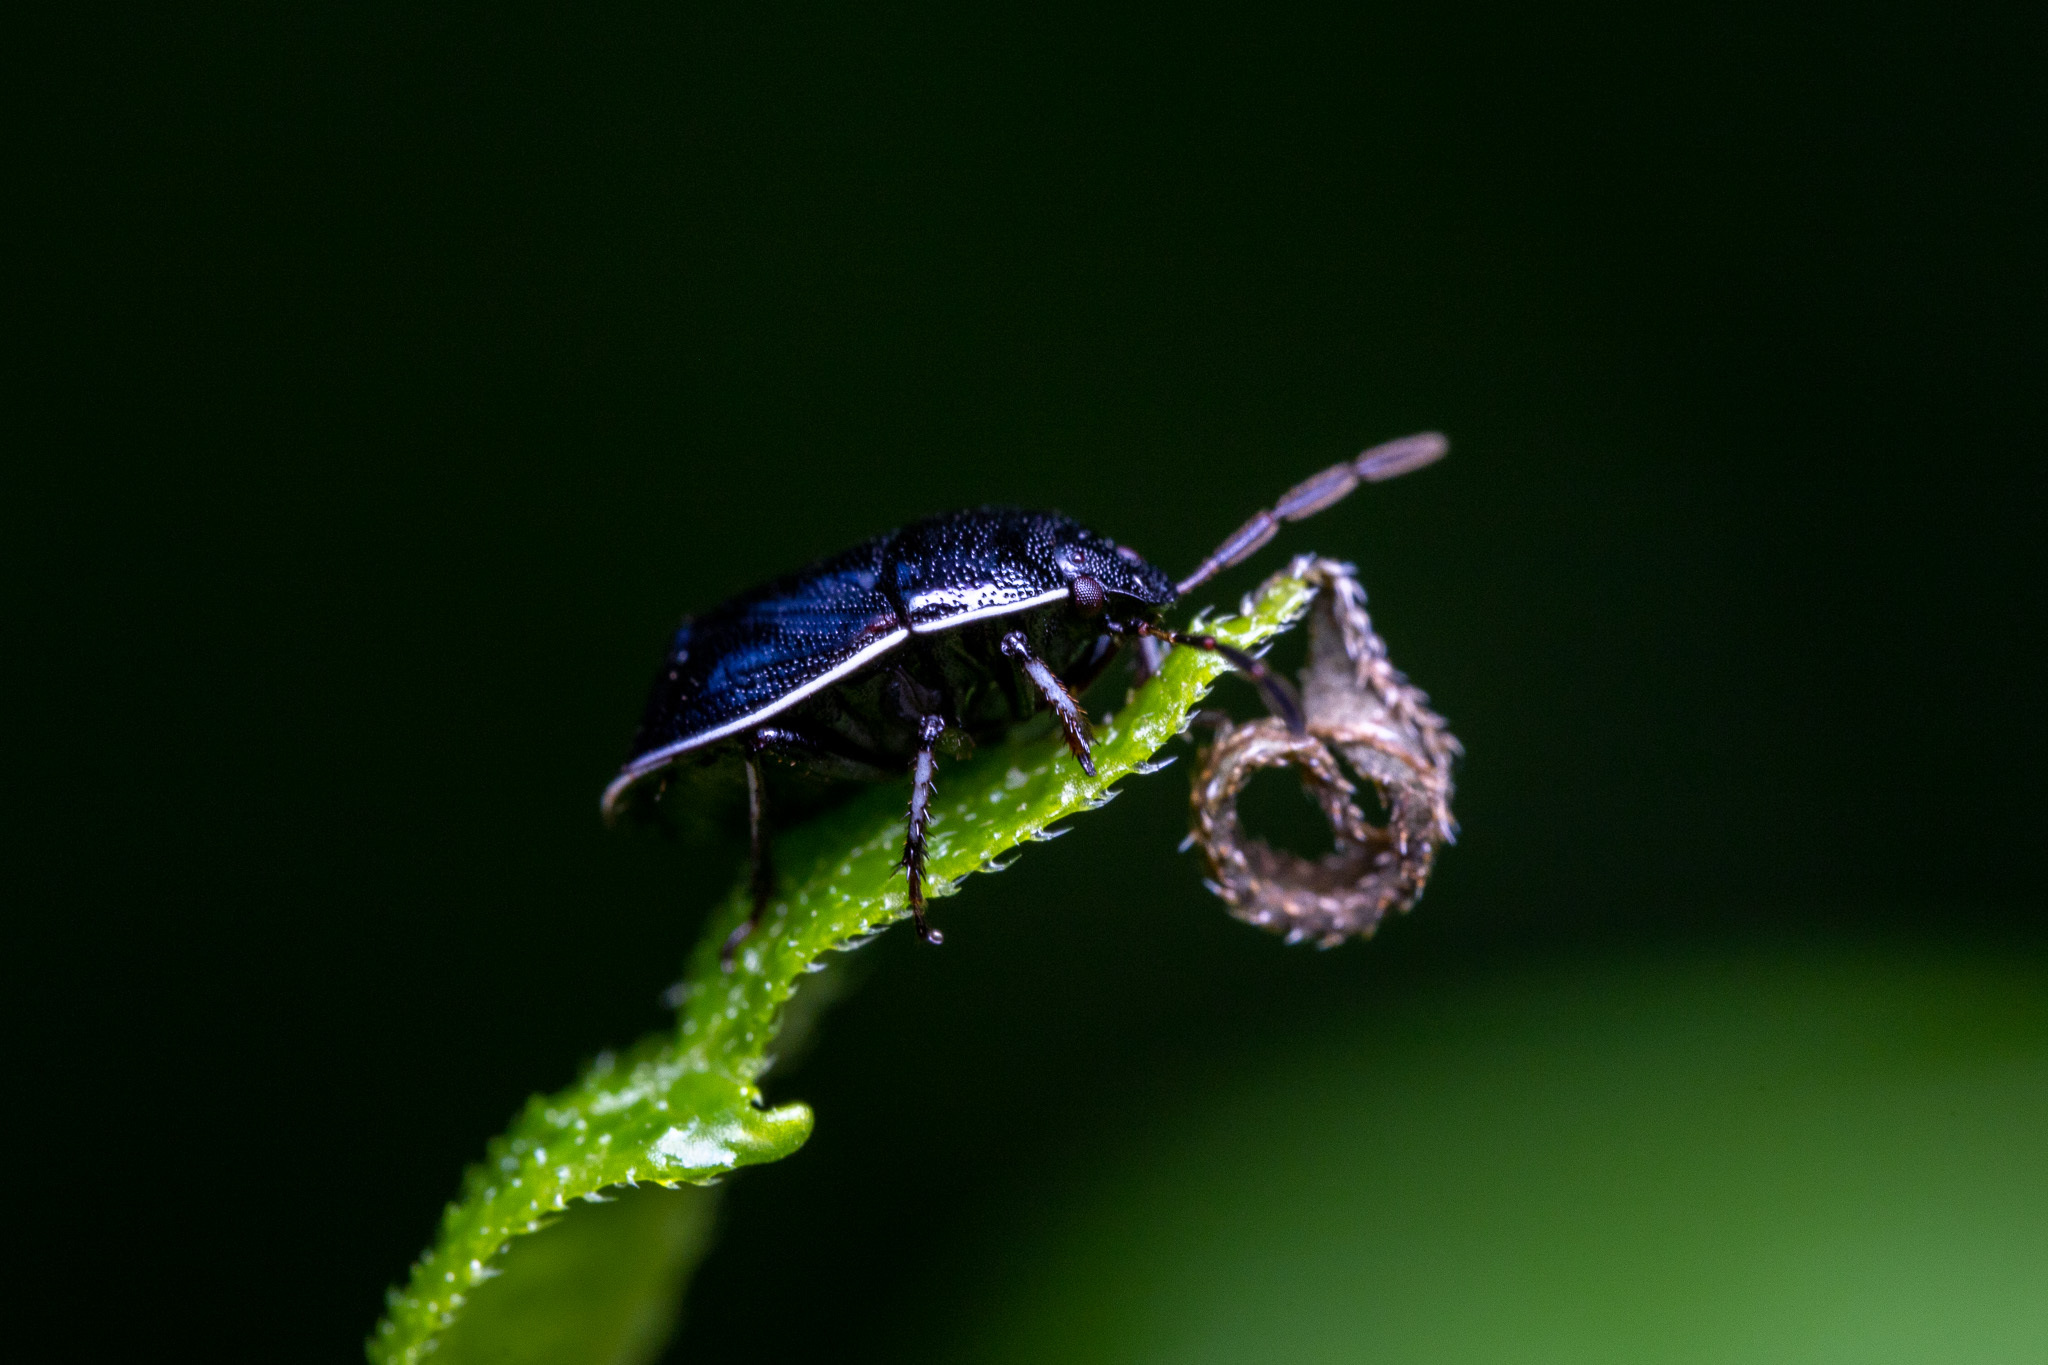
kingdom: Animalia
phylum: Arthropoda
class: Insecta
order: Hemiptera
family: Cydnidae
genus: Sehirus
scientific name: Sehirus cinctus
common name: White-margined burrower bug
